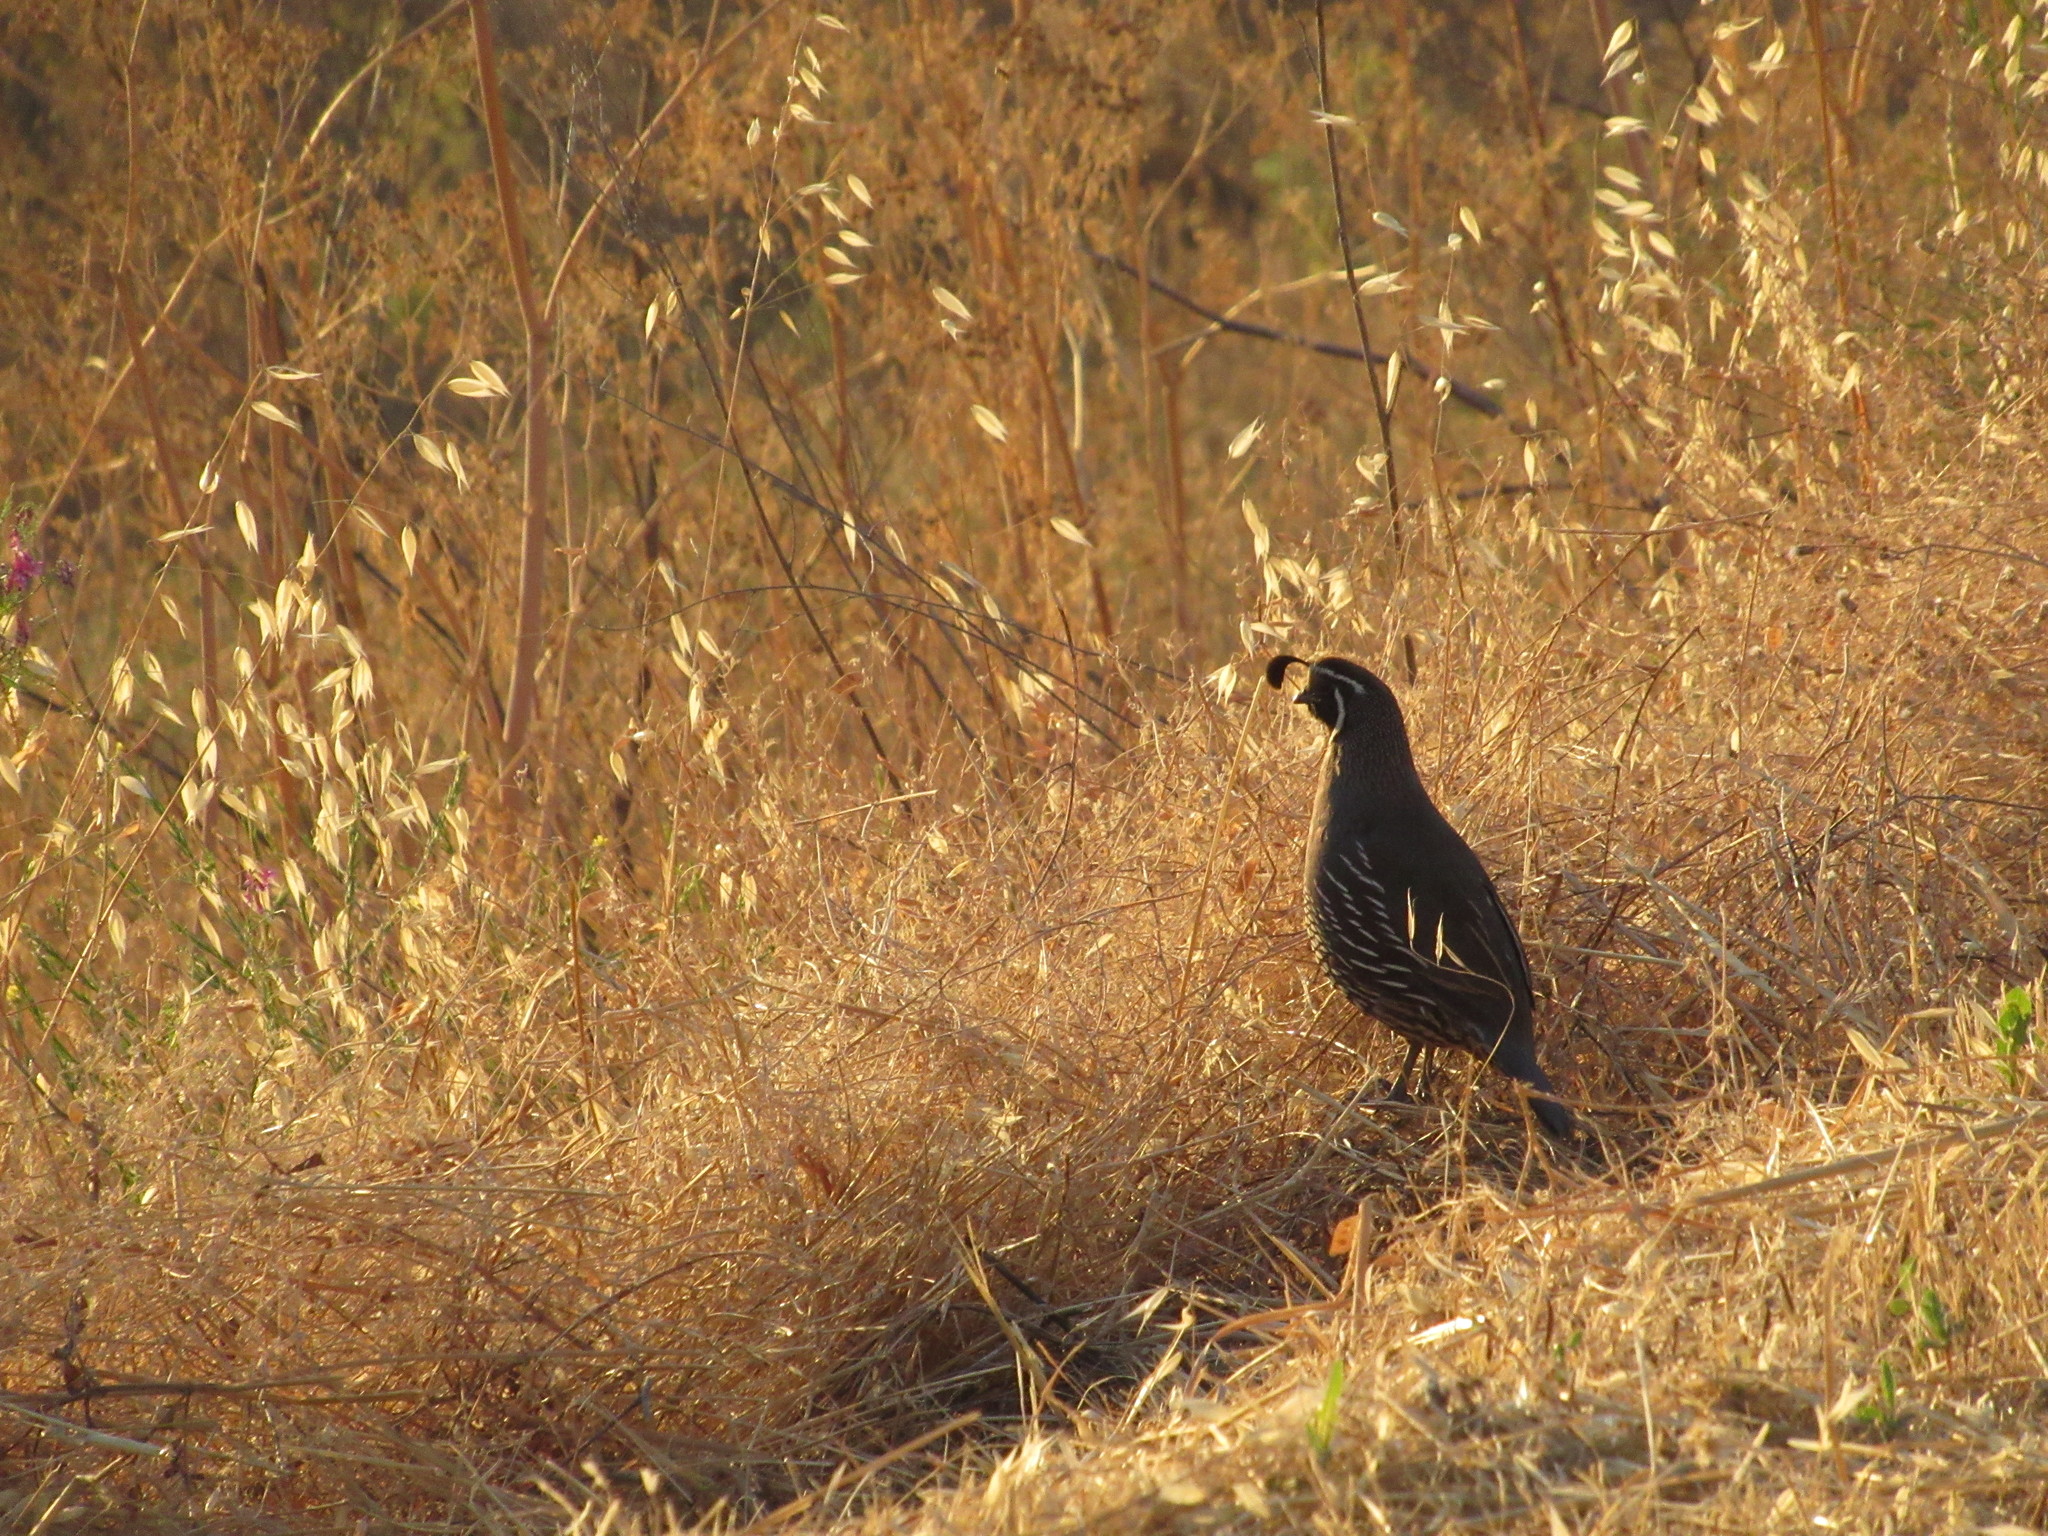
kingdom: Animalia
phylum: Chordata
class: Aves
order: Galliformes
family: Odontophoridae
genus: Callipepla
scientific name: Callipepla californica
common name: California quail
